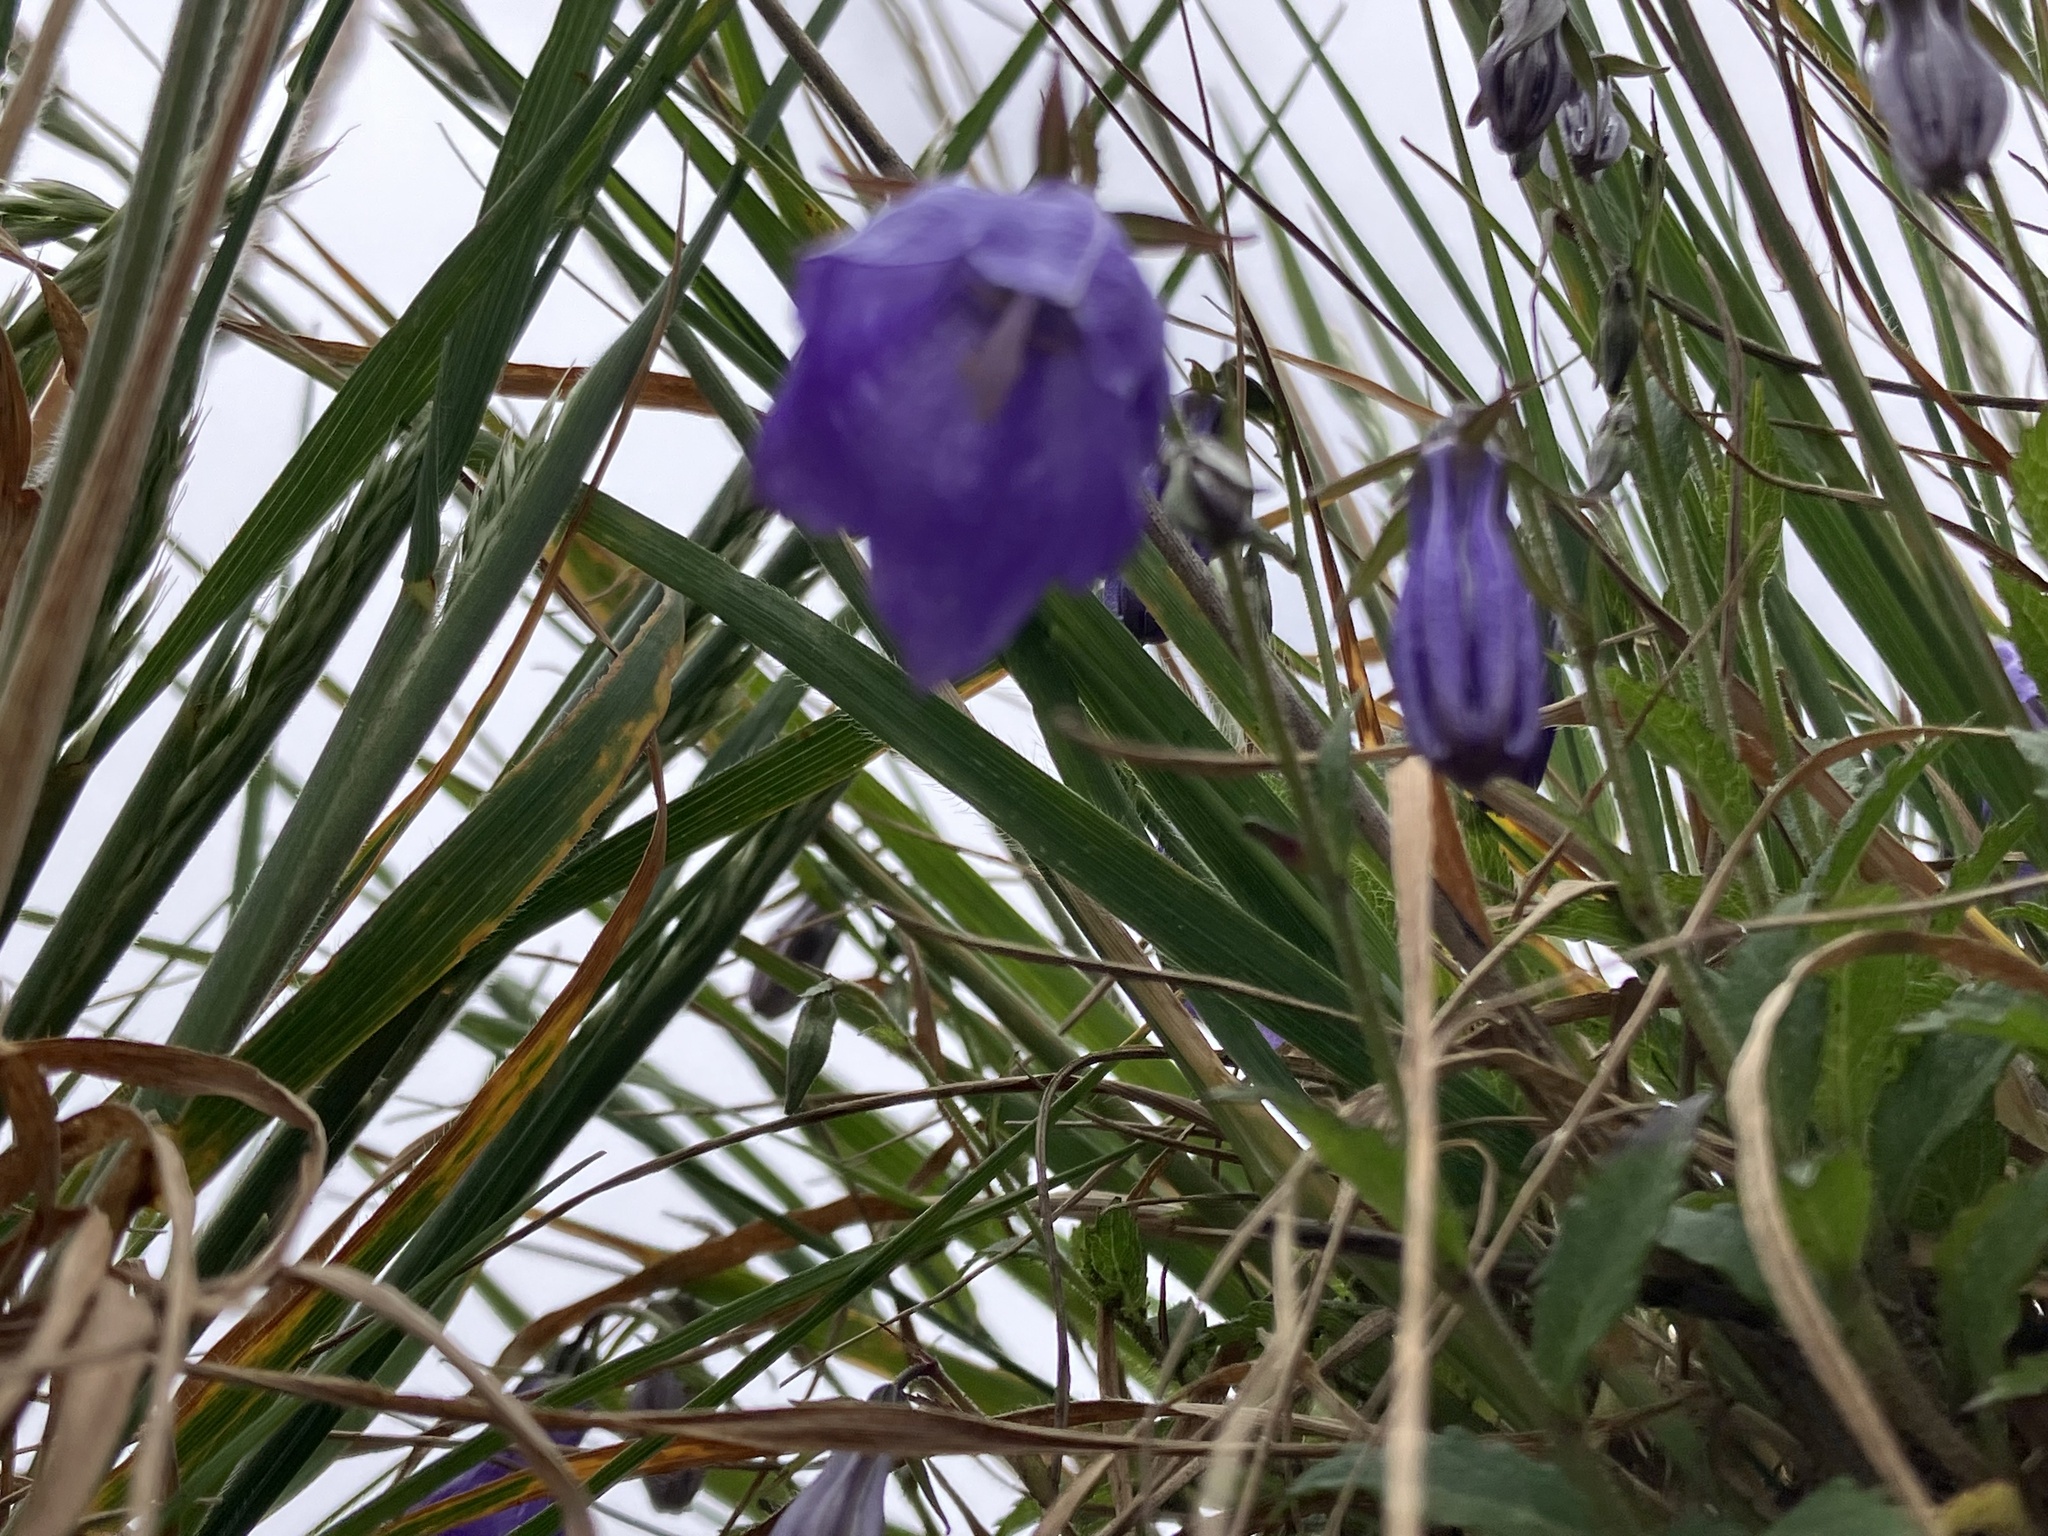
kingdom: Plantae
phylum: Tracheophyta
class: Magnoliopsida
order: Asterales
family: Campanulaceae
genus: Adenophora
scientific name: Adenophora morrisonensis
